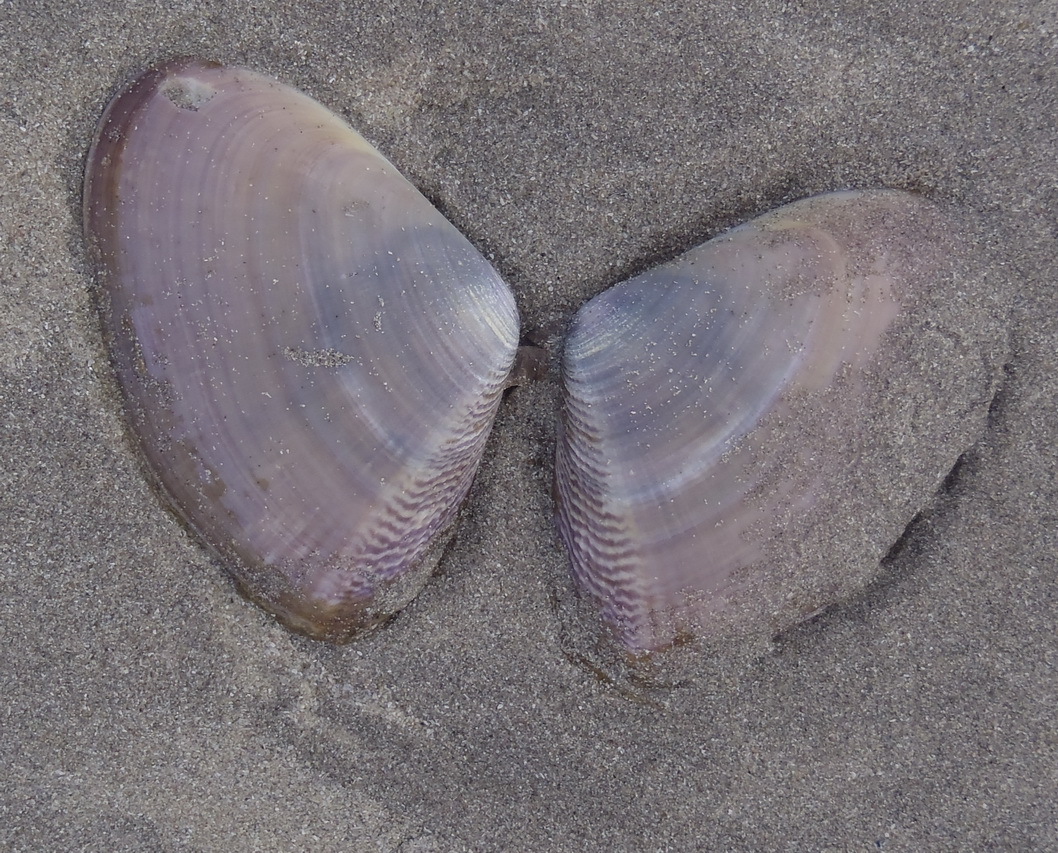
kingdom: Animalia
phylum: Mollusca
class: Bivalvia
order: Cardiida
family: Donacidae
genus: Donax
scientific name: Donax serra
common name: Giant south african wedge clam
